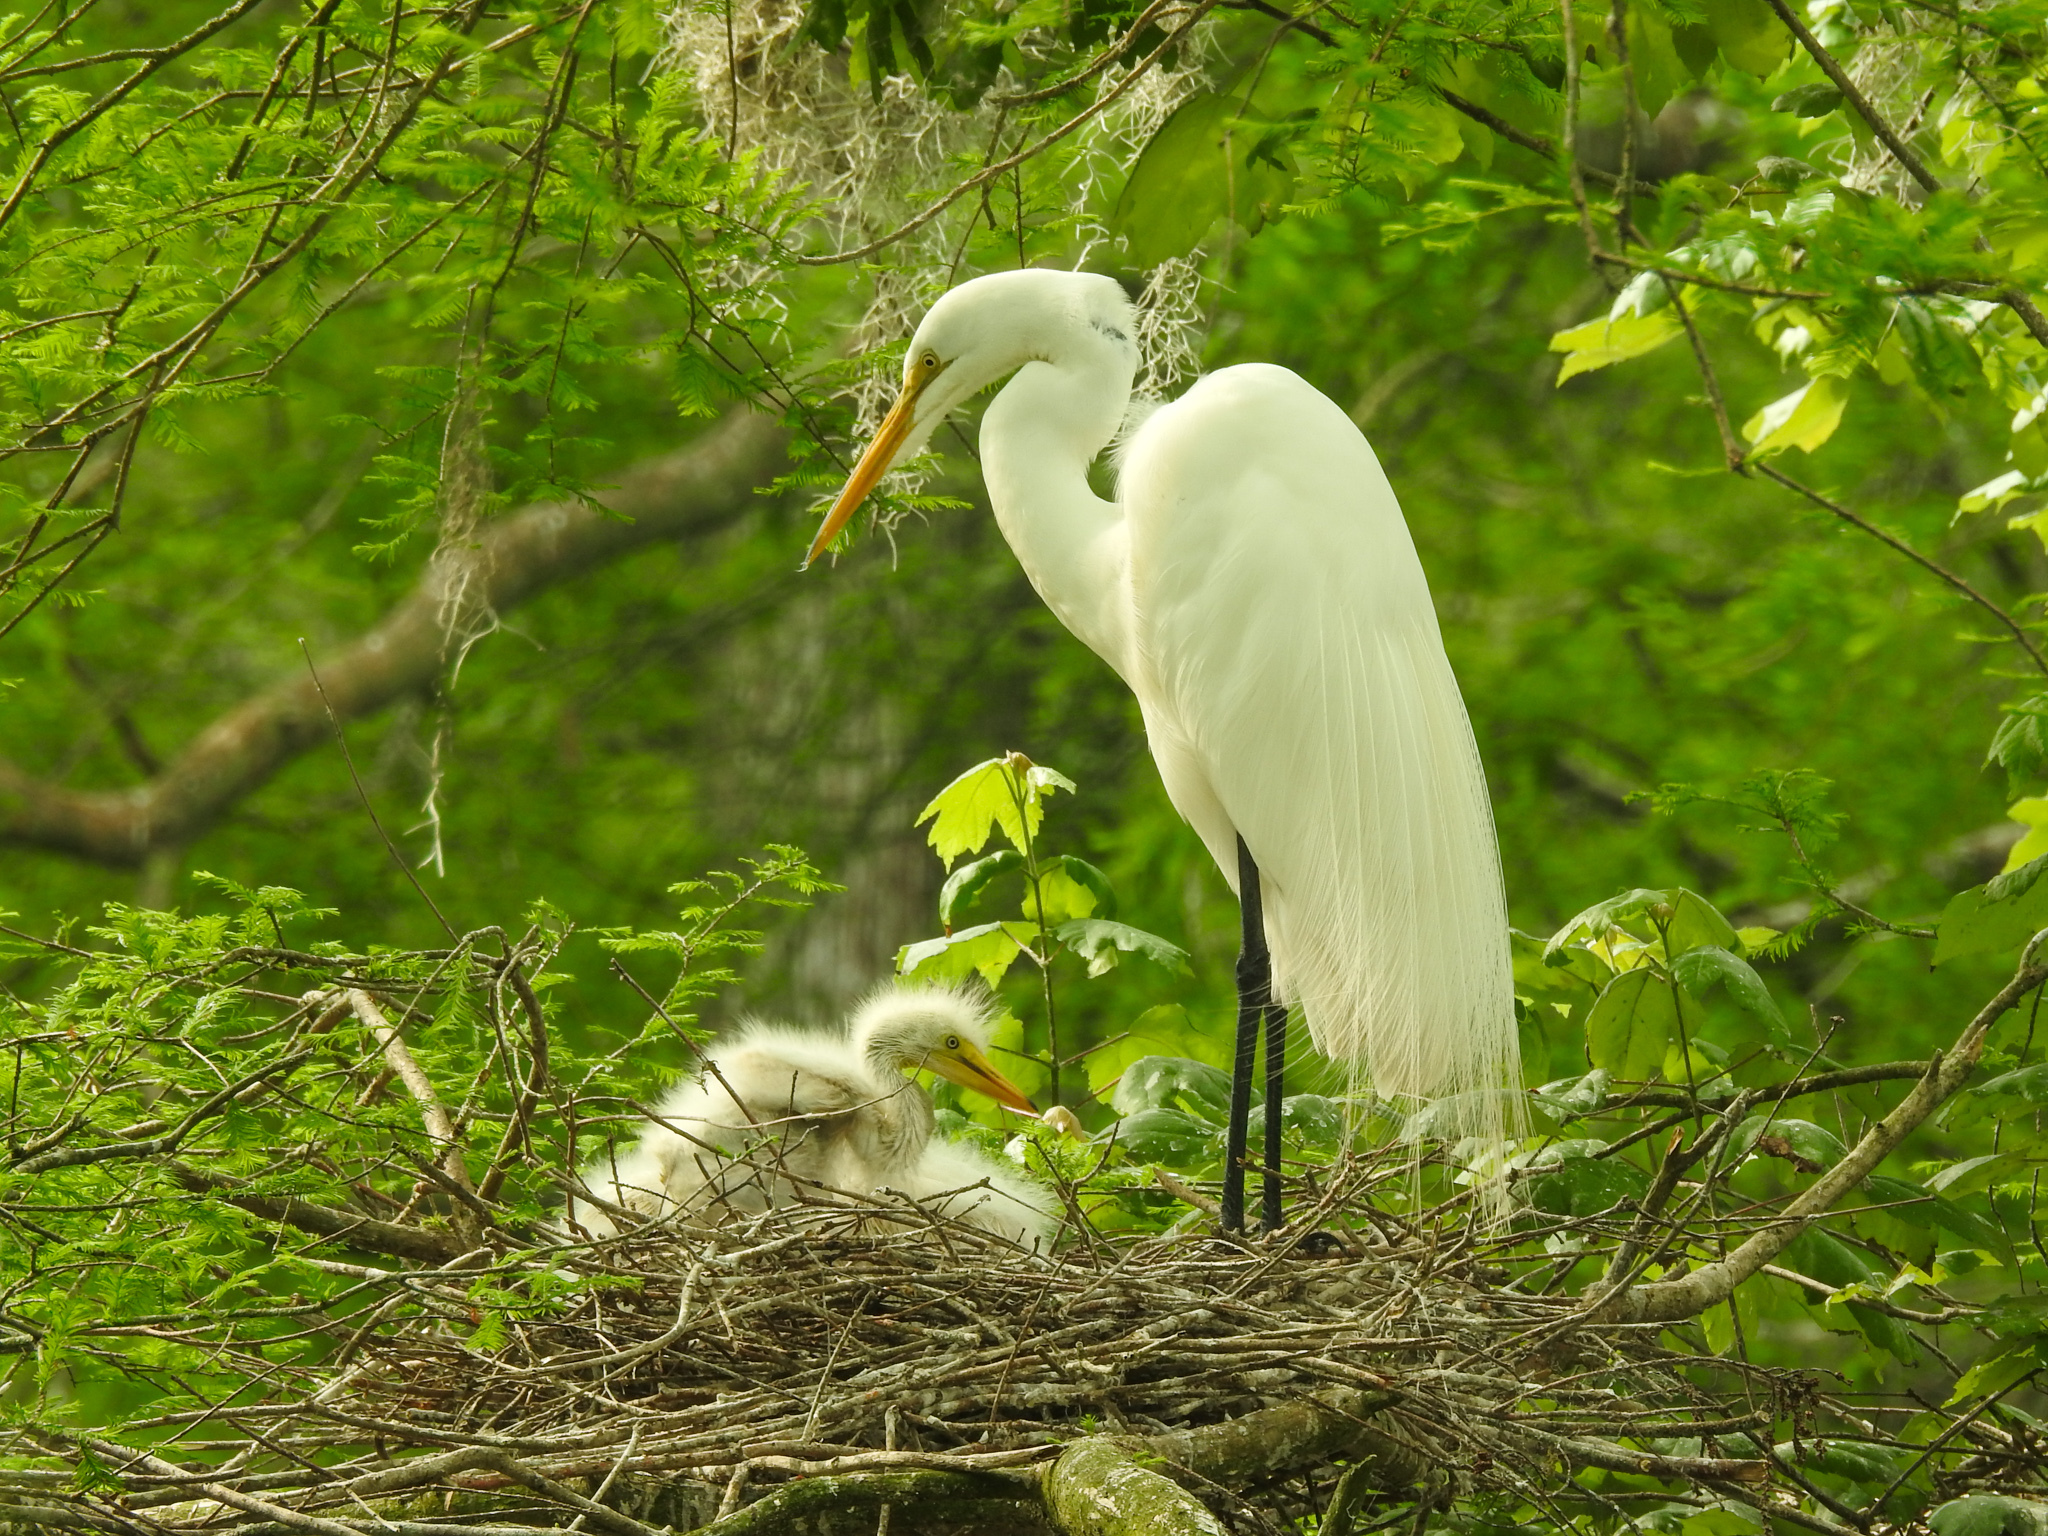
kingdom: Animalia
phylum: Chordata
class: Aves
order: Pelecaniformes
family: Ardeidae
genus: Ardea
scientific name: Ardea alba
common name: Great egret
